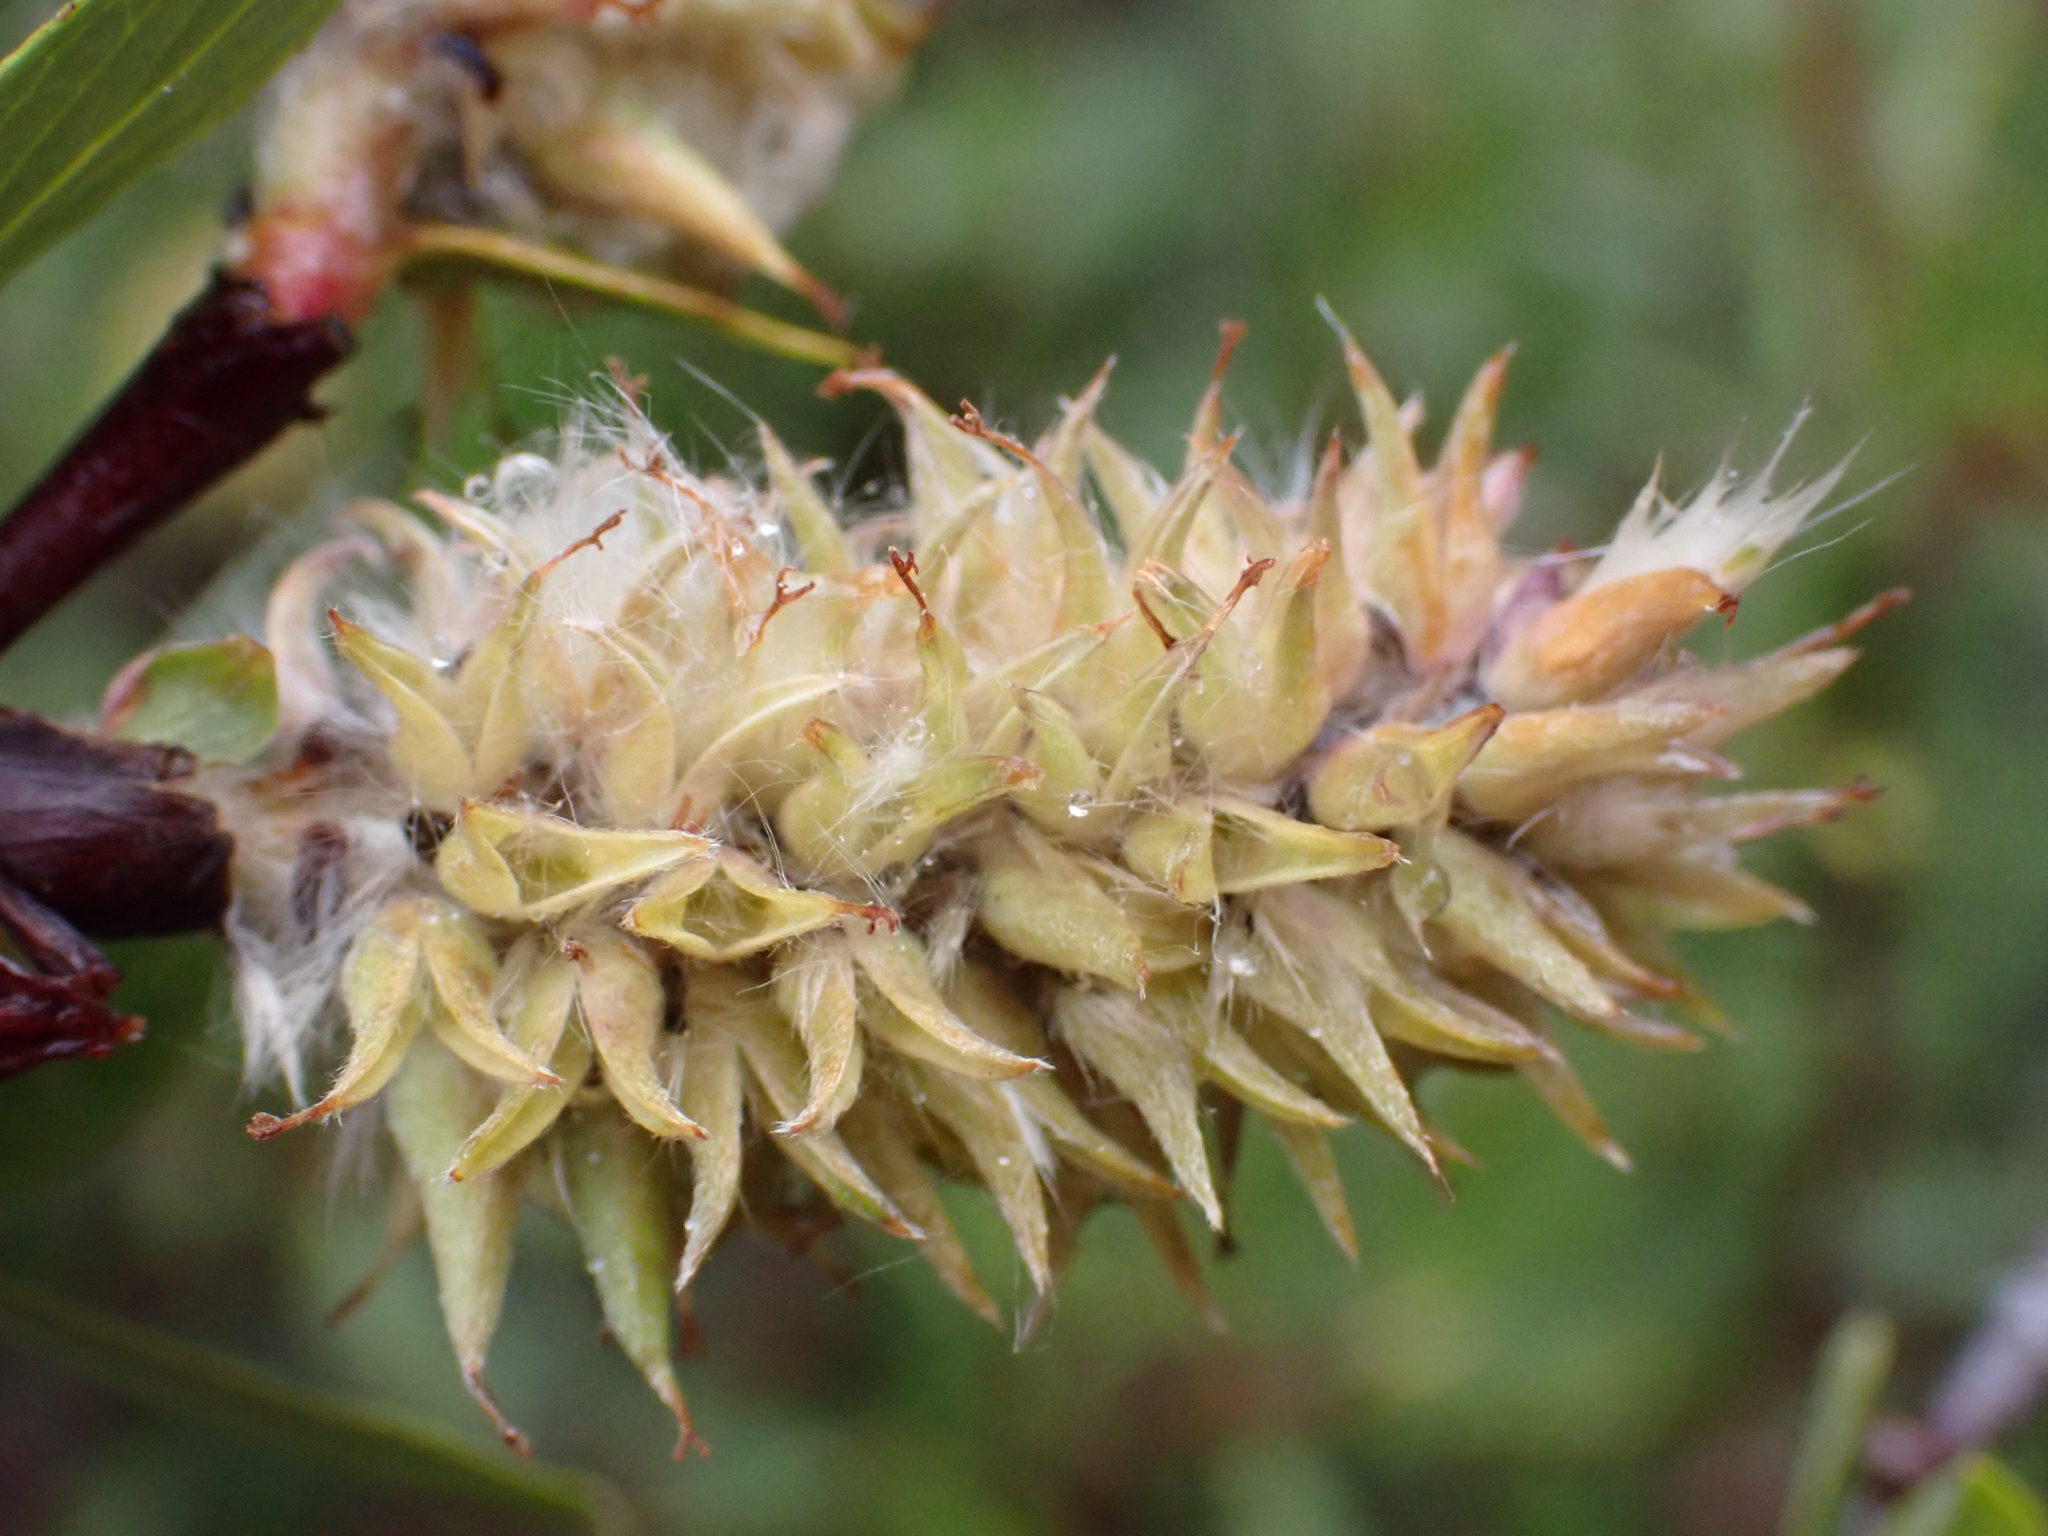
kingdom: Plantae
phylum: Tracheophyta
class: Magnoliopsida
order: Malpighiales
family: Salicaceae
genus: Salix
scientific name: Salix planifolia
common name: Mountain willow
